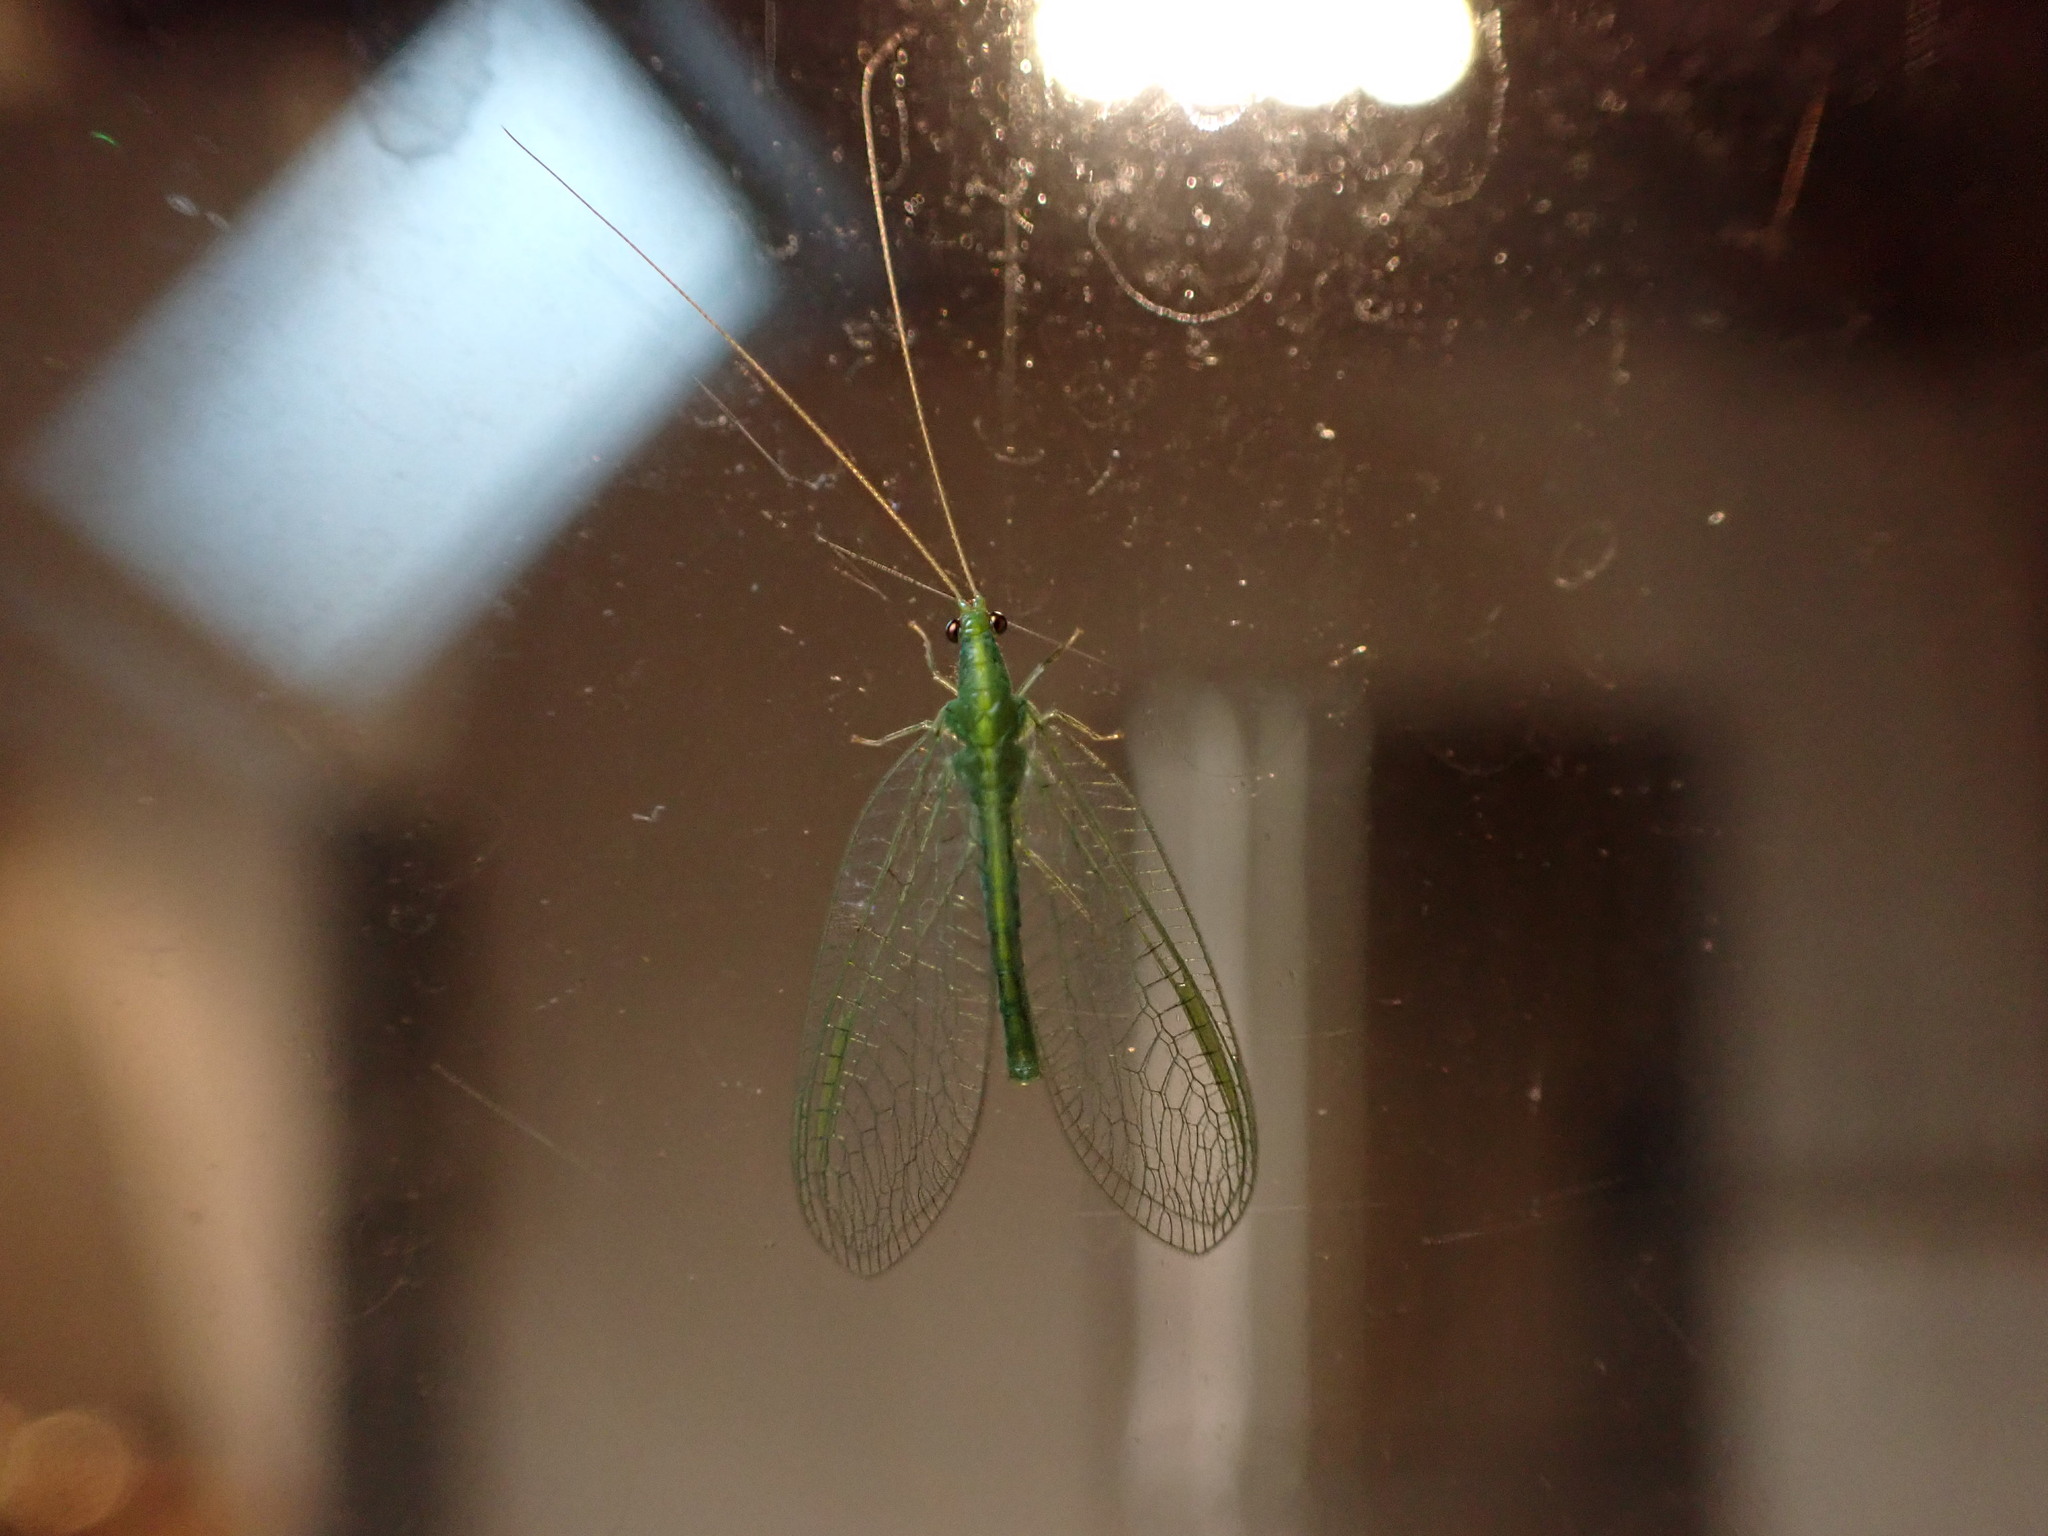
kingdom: Animalia
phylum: Arthropoda
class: Insecta
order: Neuroptera
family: Chrysopidae
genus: Mallada
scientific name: Mallada basalis
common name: Green lacewing
